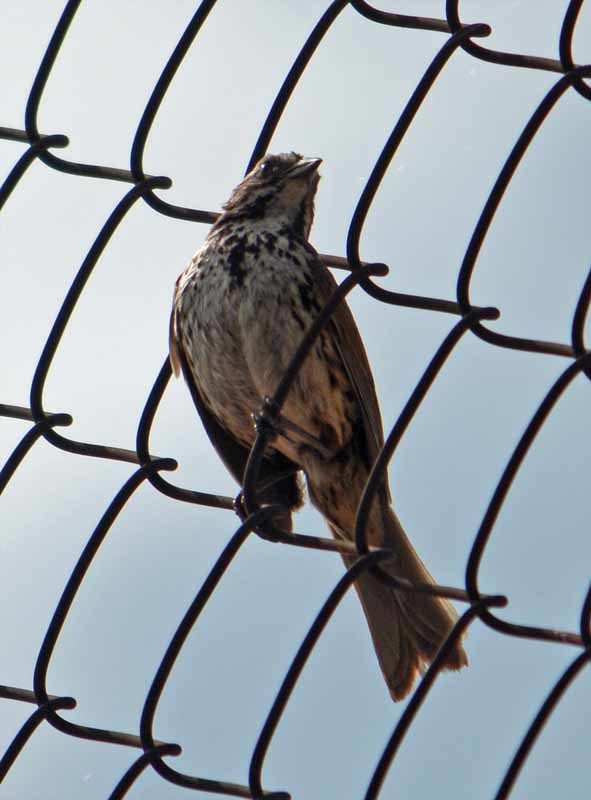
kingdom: Animalia
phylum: Chordata
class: Aves
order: Passeriformes
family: Passerellidae
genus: Melospiza
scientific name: Melospiza melodia
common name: Song sparrow
